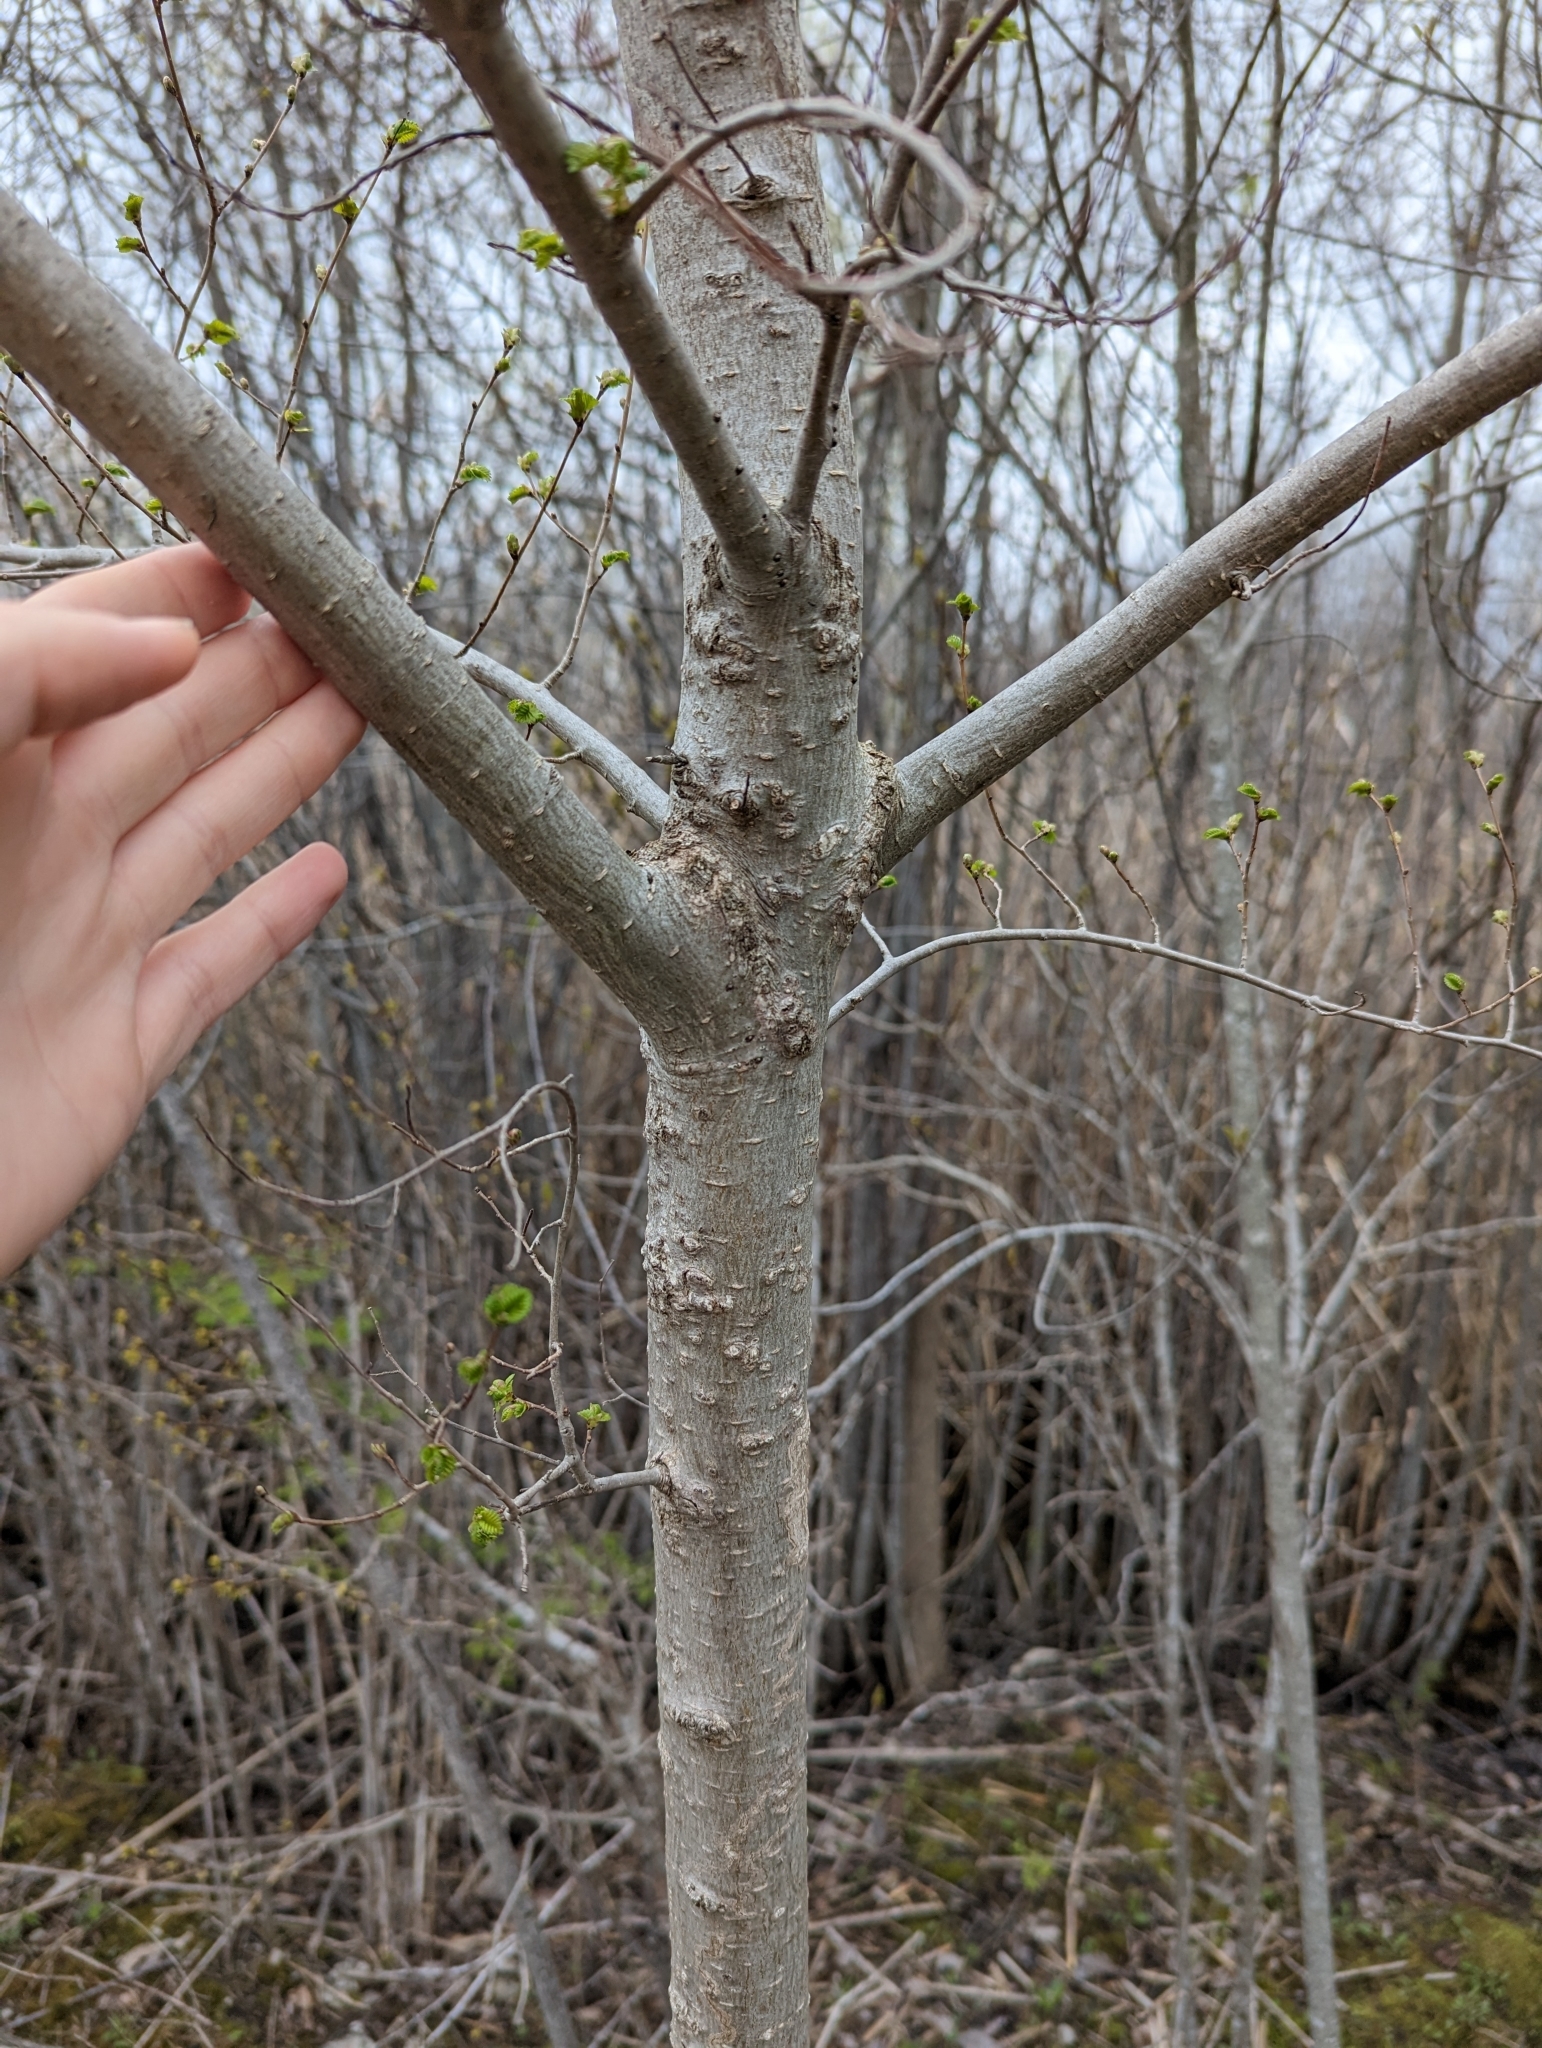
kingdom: Plantae
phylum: Tracheophyta
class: Magnoliopsida
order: Rosales
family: Ulmaceae
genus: Ulmus
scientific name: Ulmus pumila
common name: Siberian elm
